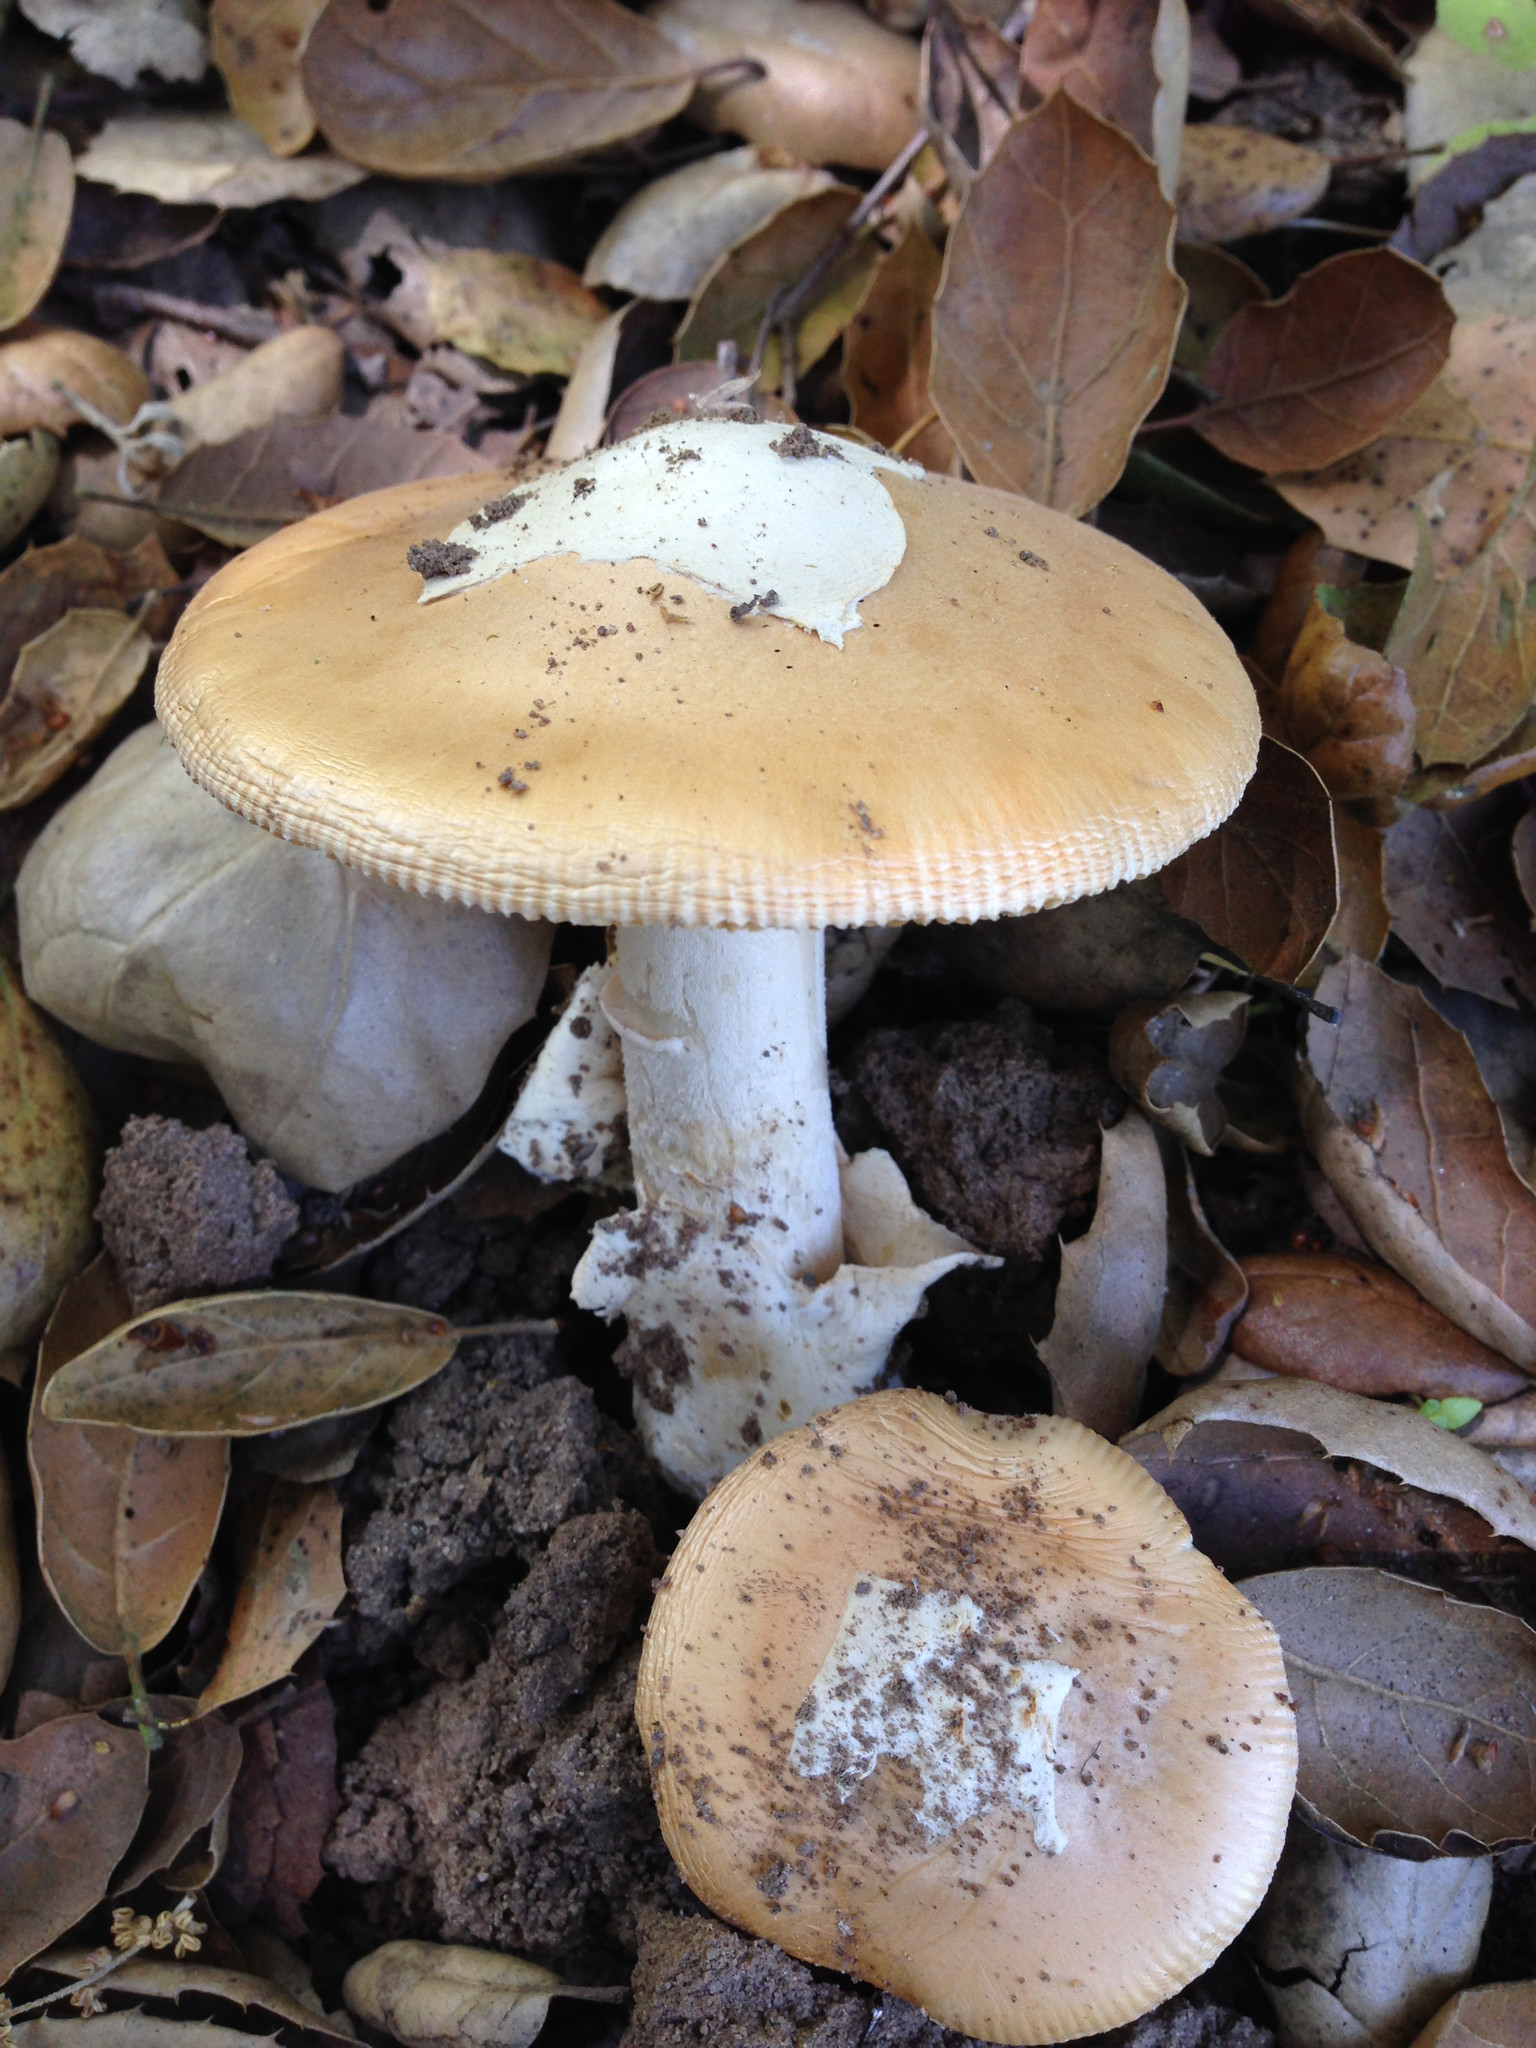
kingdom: Fungi
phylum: Basidiomycota
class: Agaricomycetes
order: Agaricales
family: Amanitaceae
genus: Amanita
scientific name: Amanita velosa
